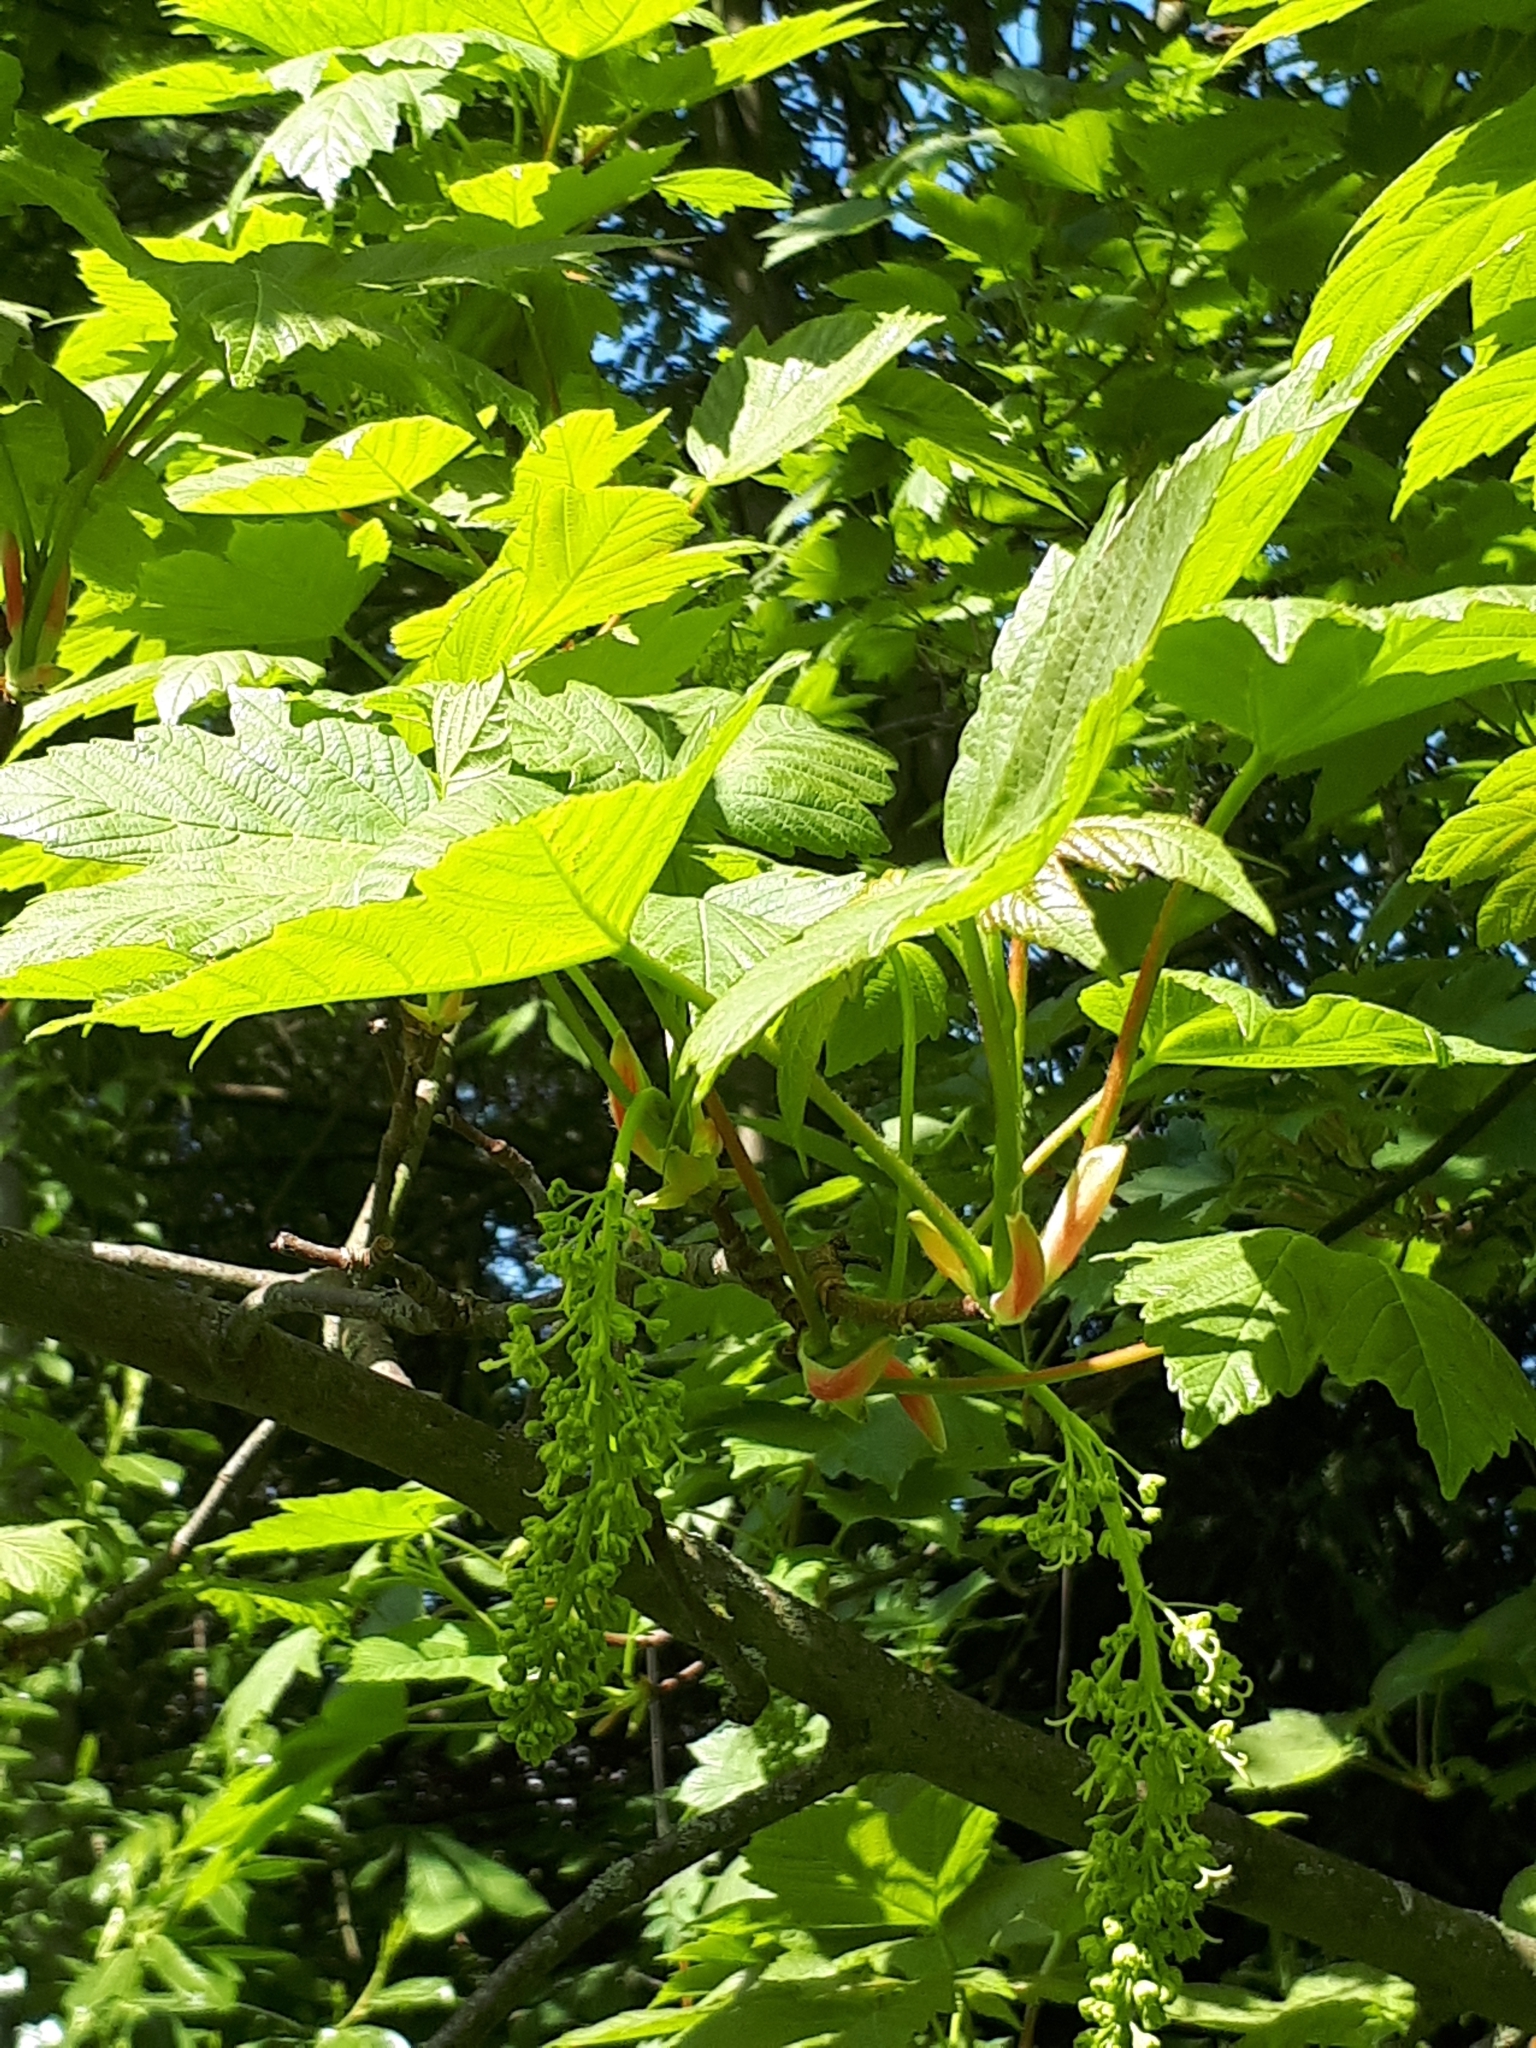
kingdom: Plantae
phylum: Tracheophyta
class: Magnoliopsida
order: Sapindales
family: Sapindaceae
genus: Acer
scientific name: Acer pseudoplatanus
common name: Sycamore
